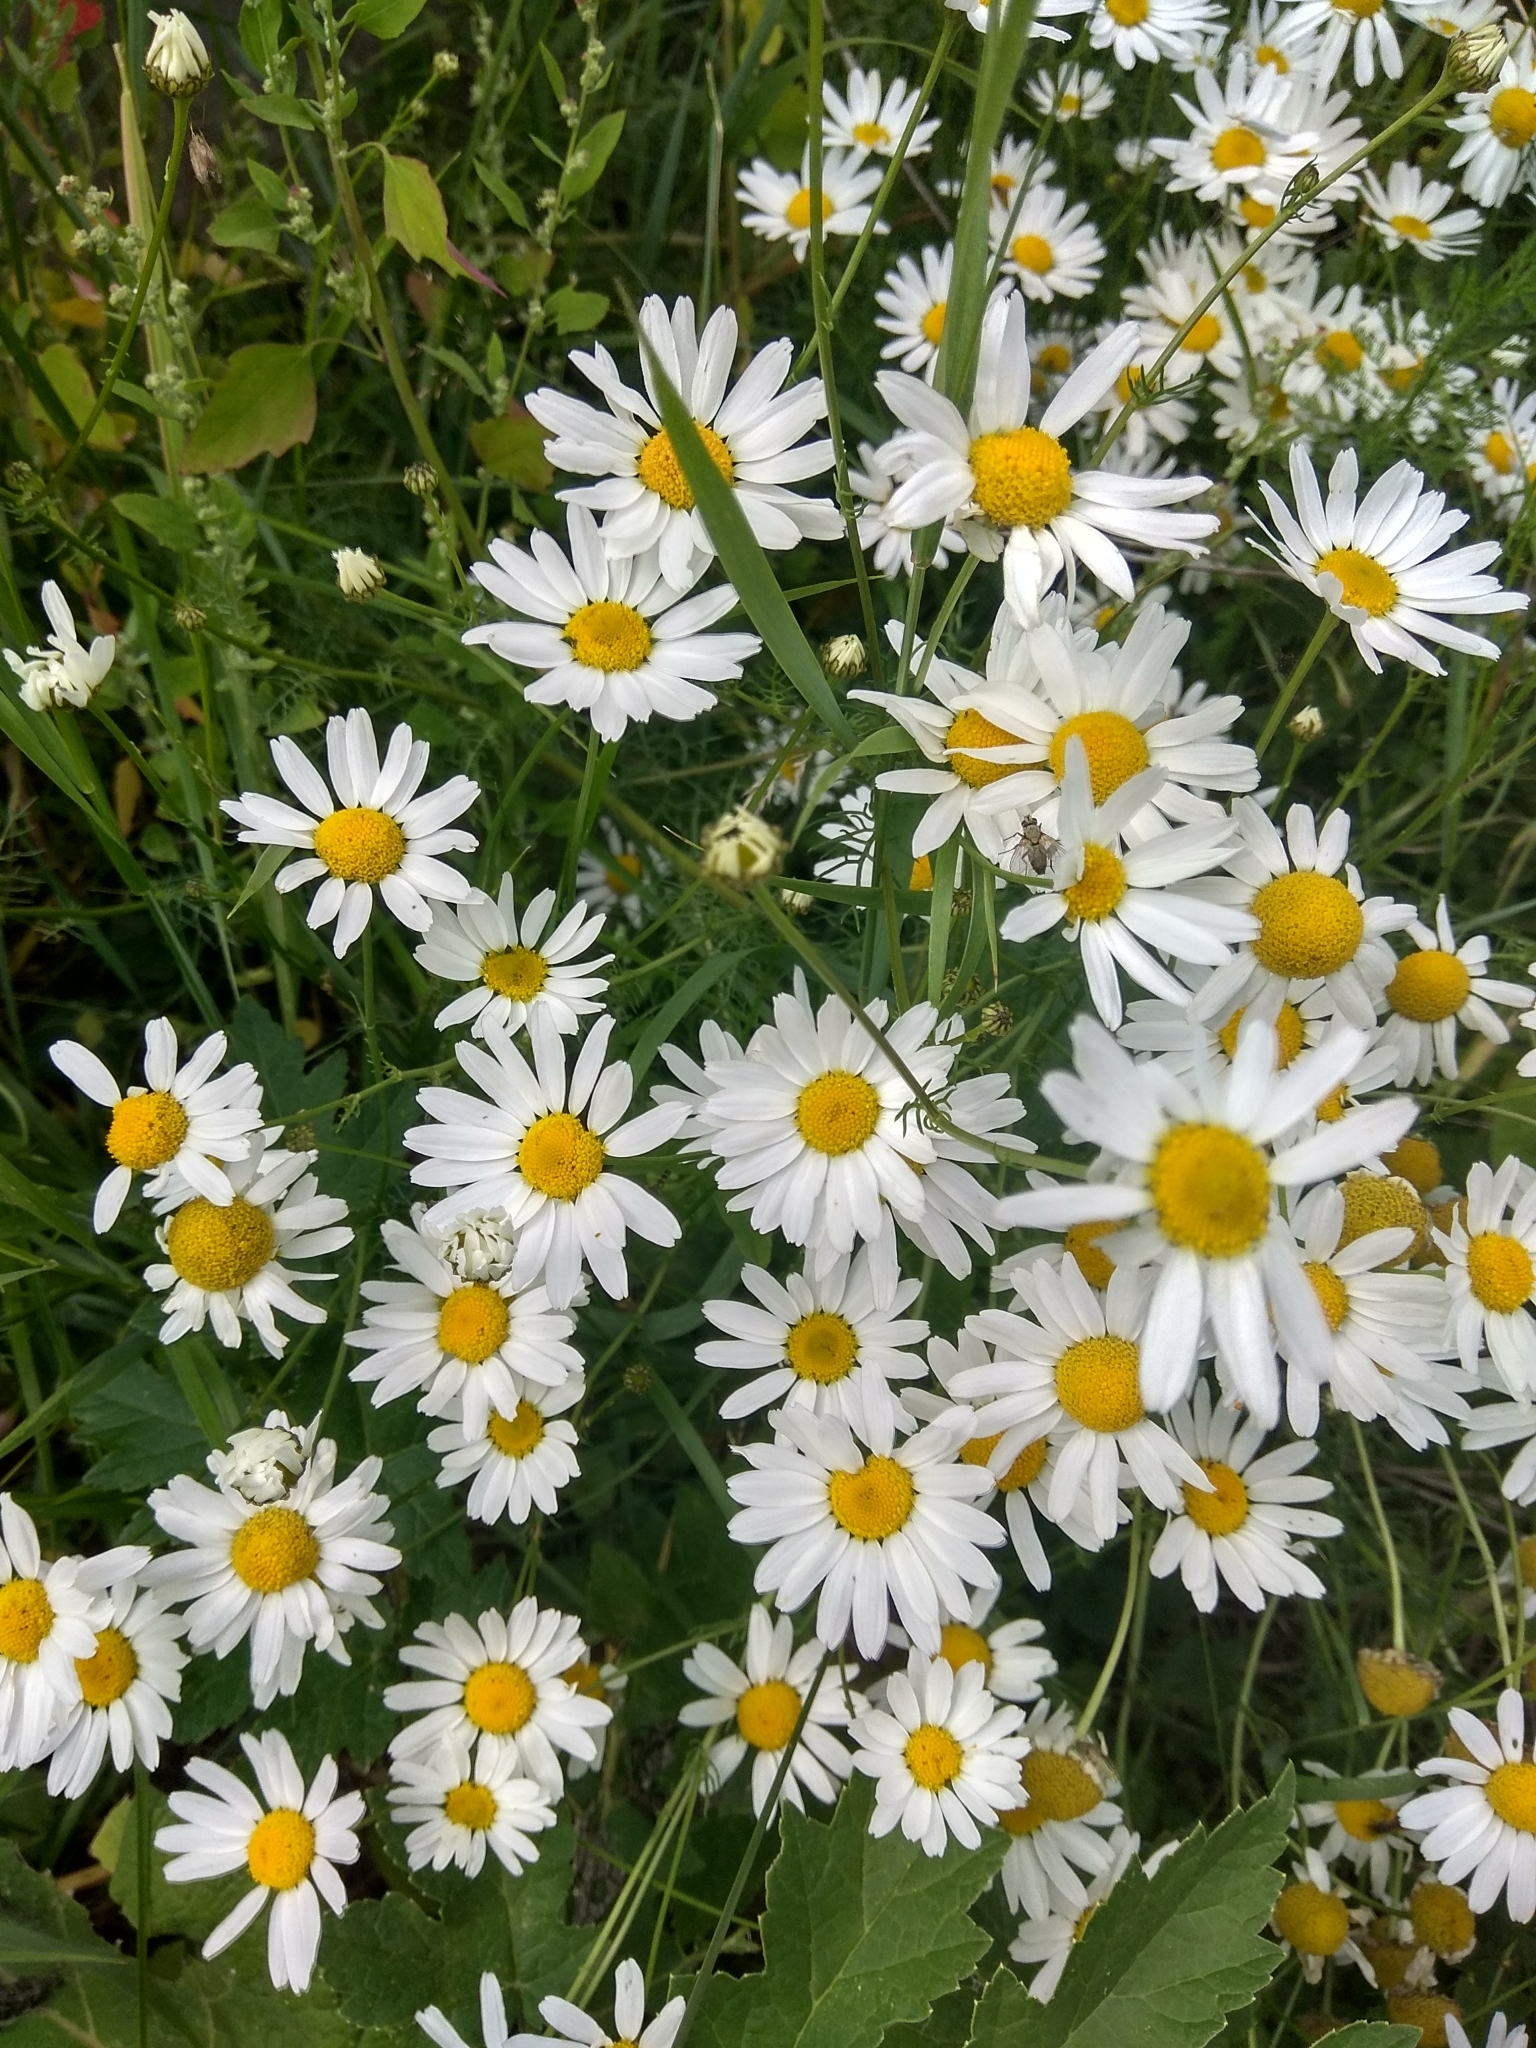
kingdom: Plantae
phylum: Tracheophyta
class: Magnoliopsida
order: Asterales
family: Asteraceae
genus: Tripleurospermum
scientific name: Tripleurospermum inodorum
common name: Scentless mayweed
